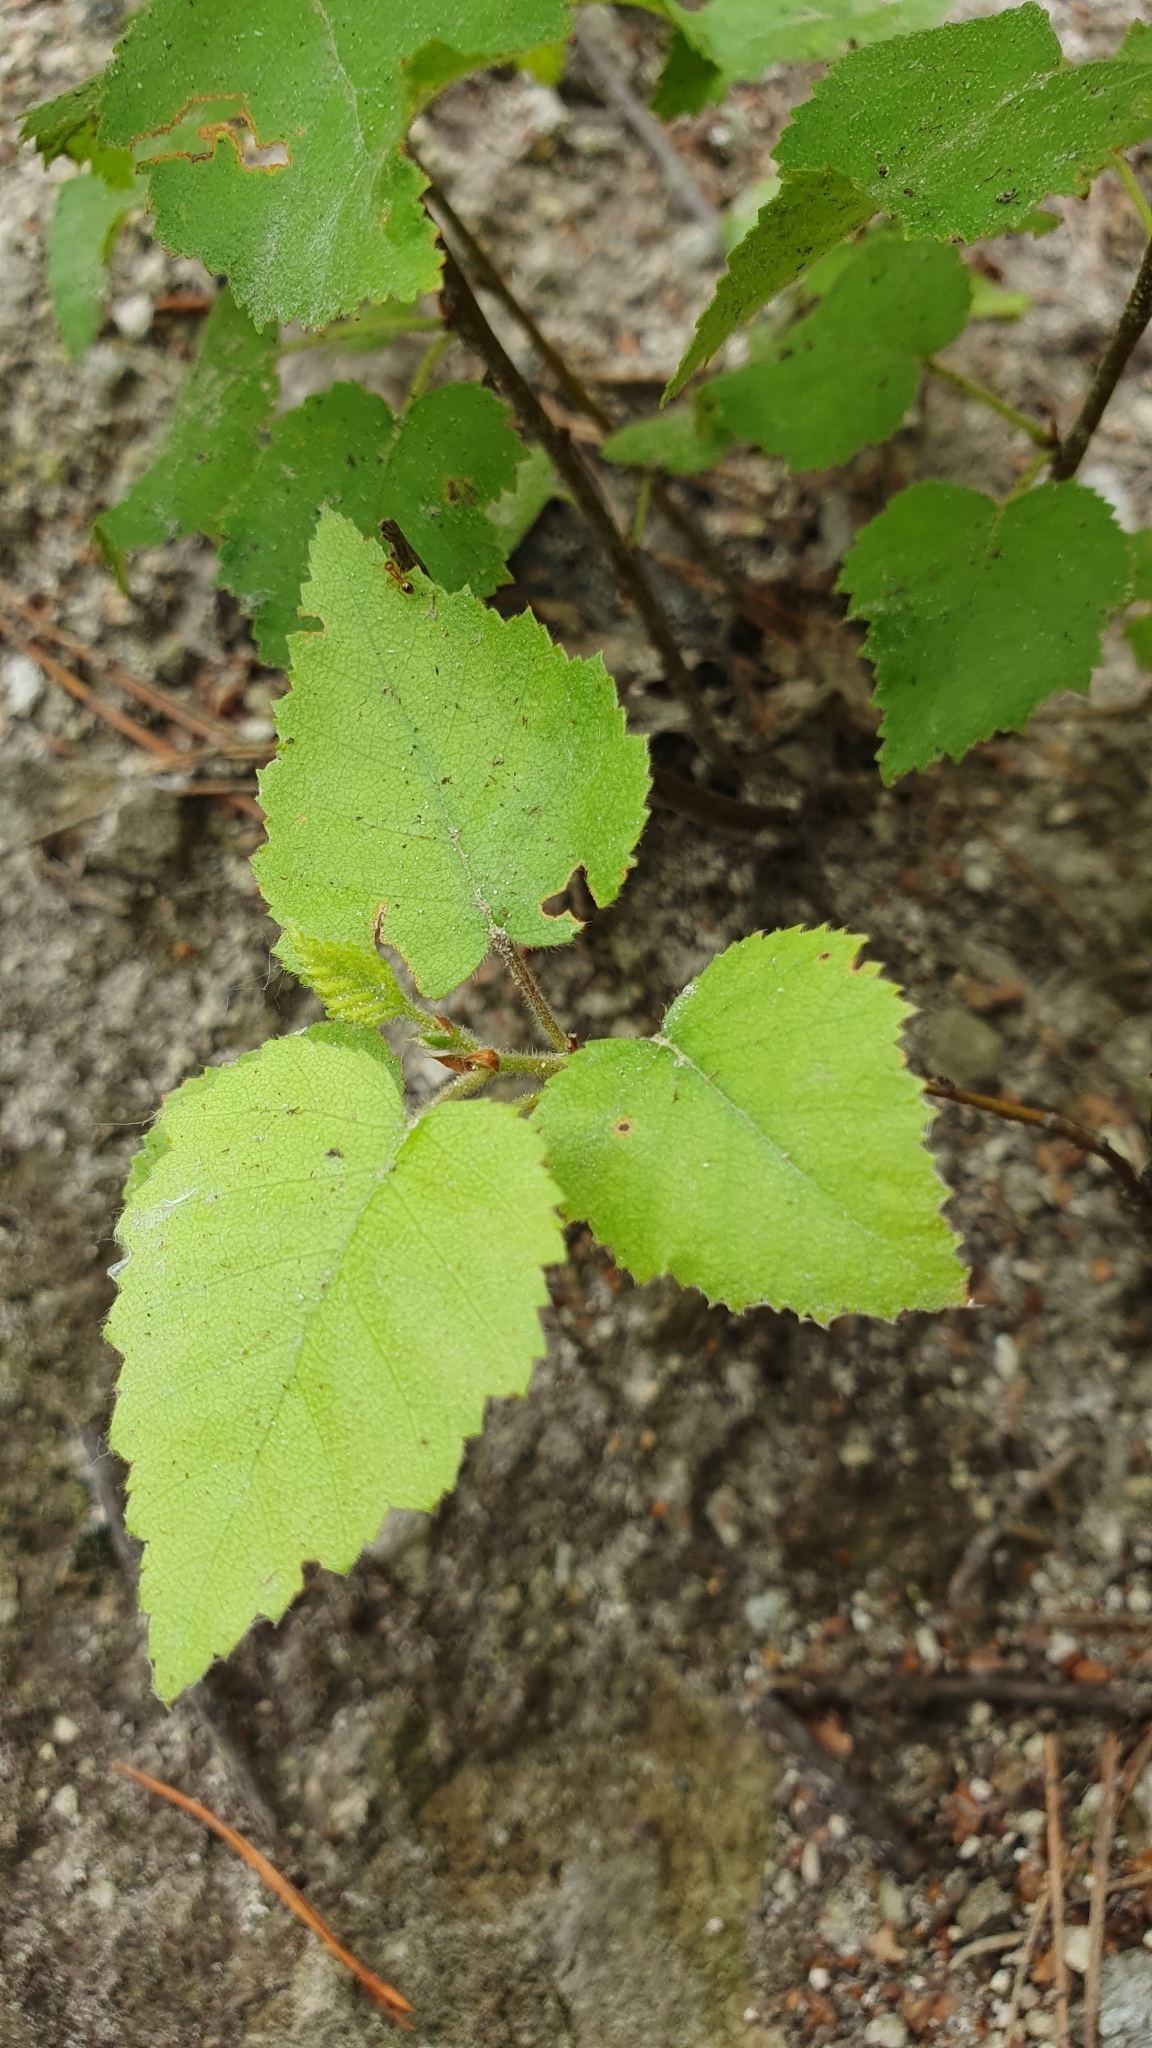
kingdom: Plantae
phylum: Tracheophyta
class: Magnoliopsida
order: Fagales
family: Betulaceae
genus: Betula
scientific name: Betula pubescens
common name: Downy birch
